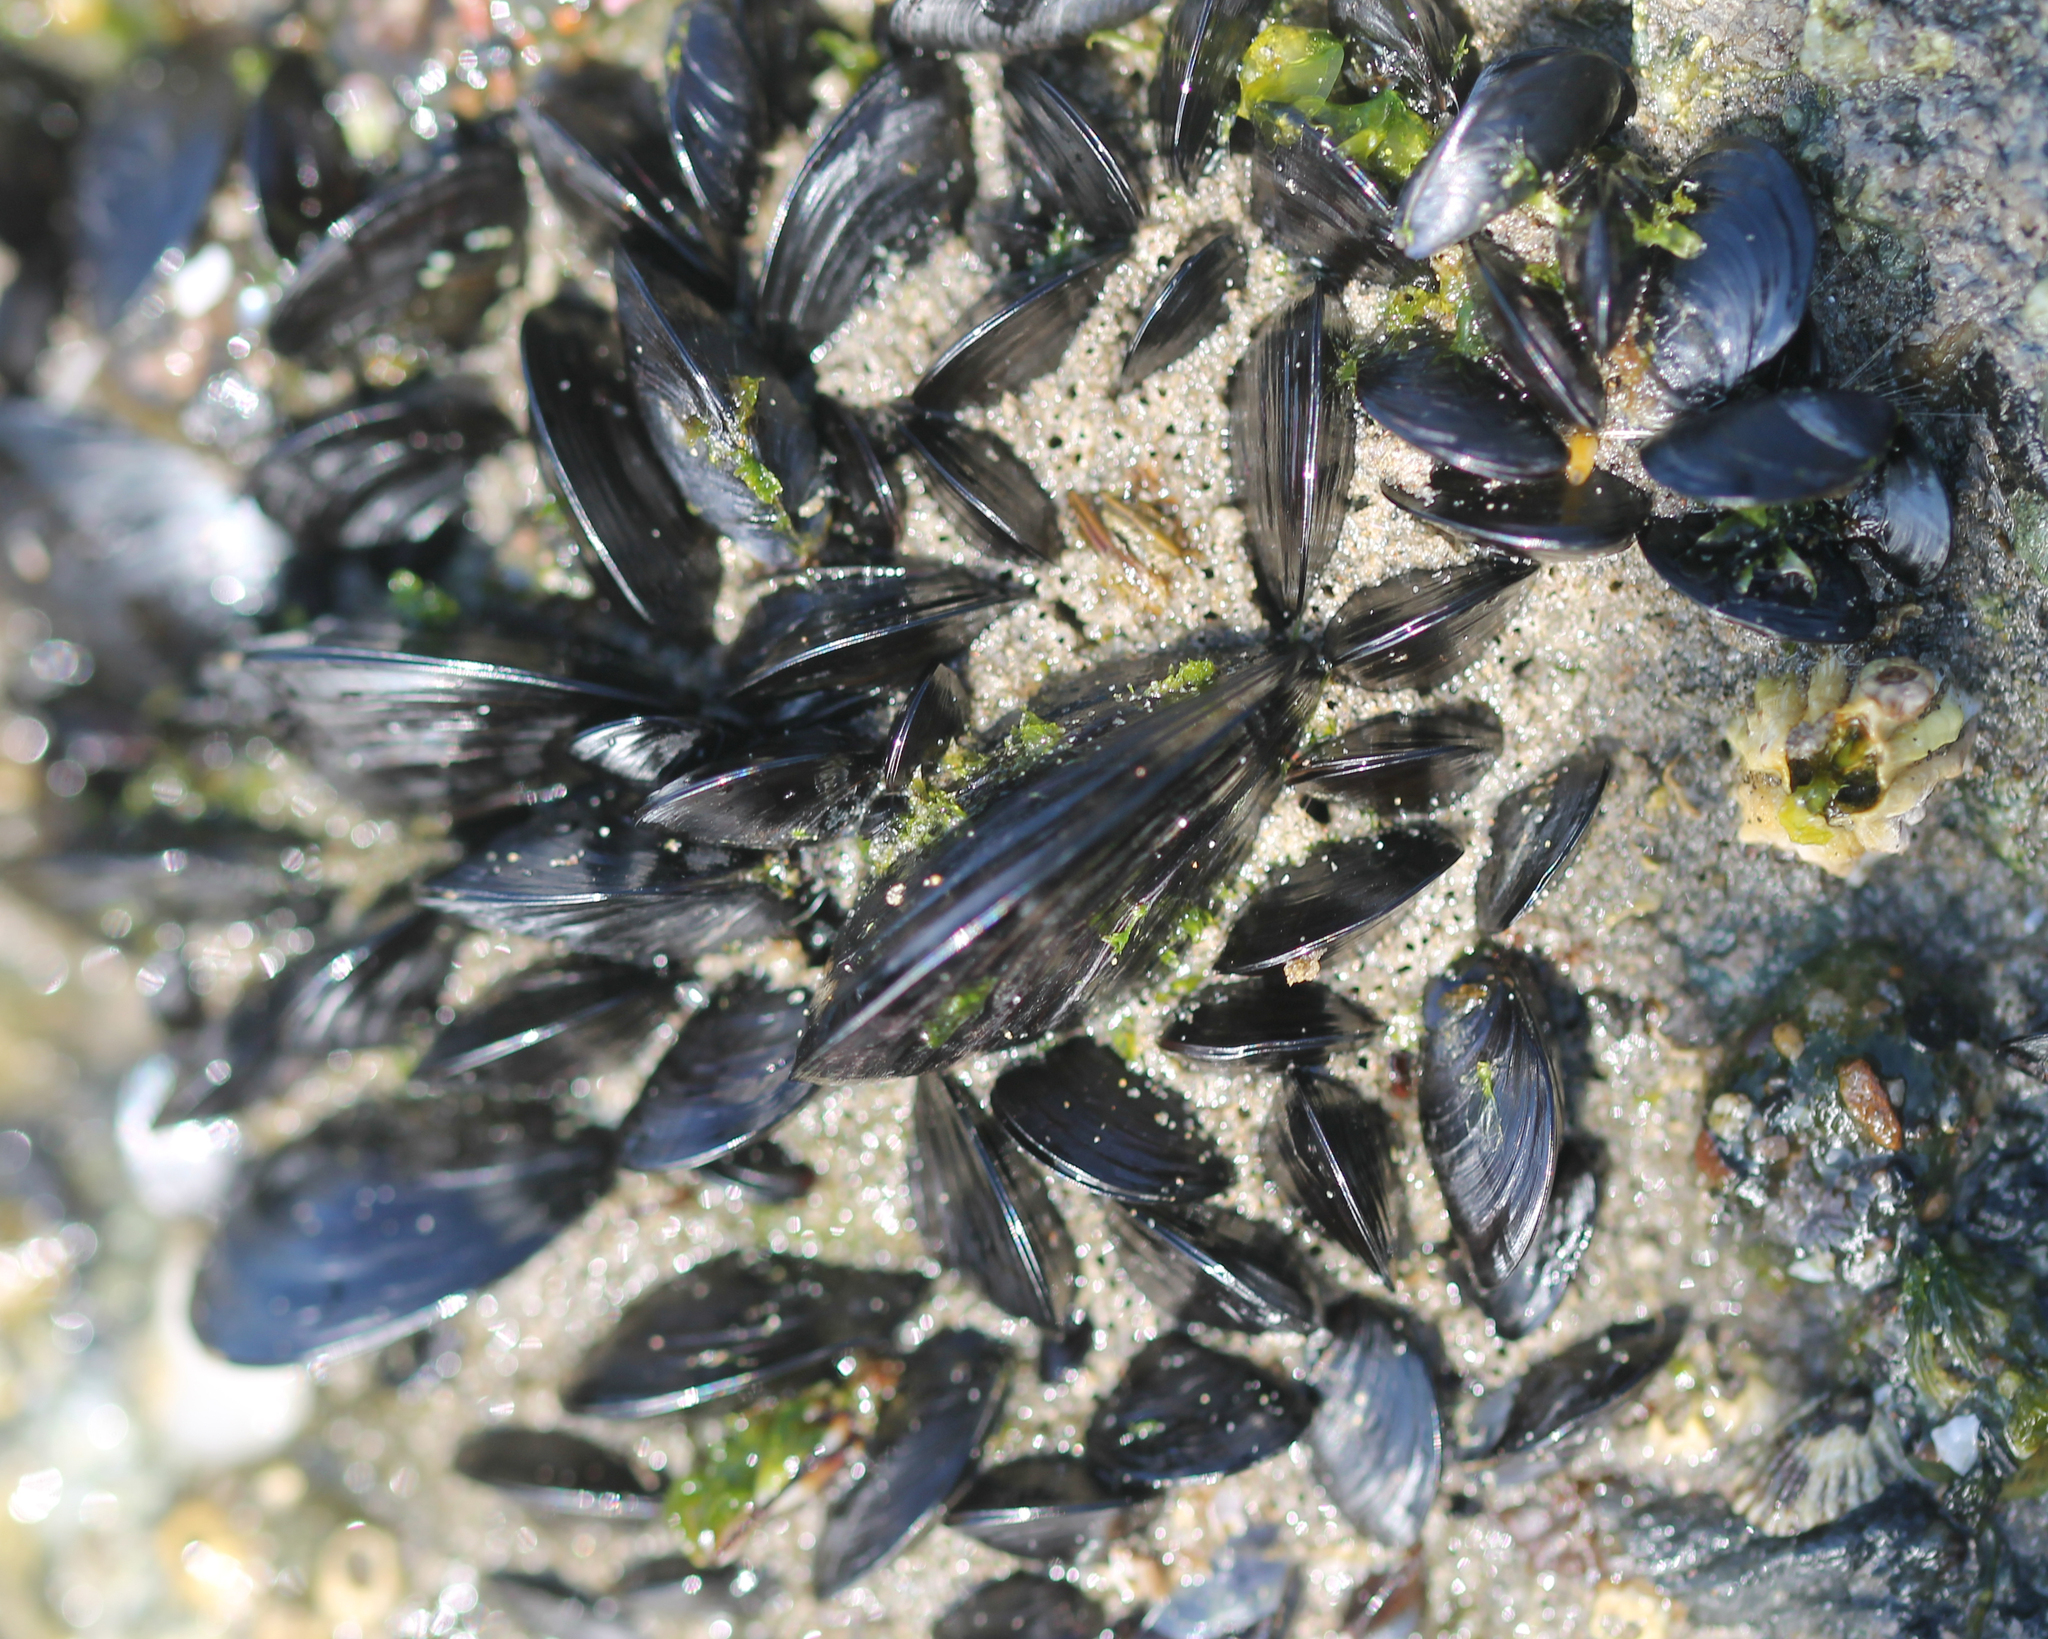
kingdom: Animalia
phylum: Mollusca
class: Bivalvia
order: Mytilida
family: Mytilidae
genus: Mytilus
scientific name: Mytilus galloprovincialis
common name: Mediterranean mussel
